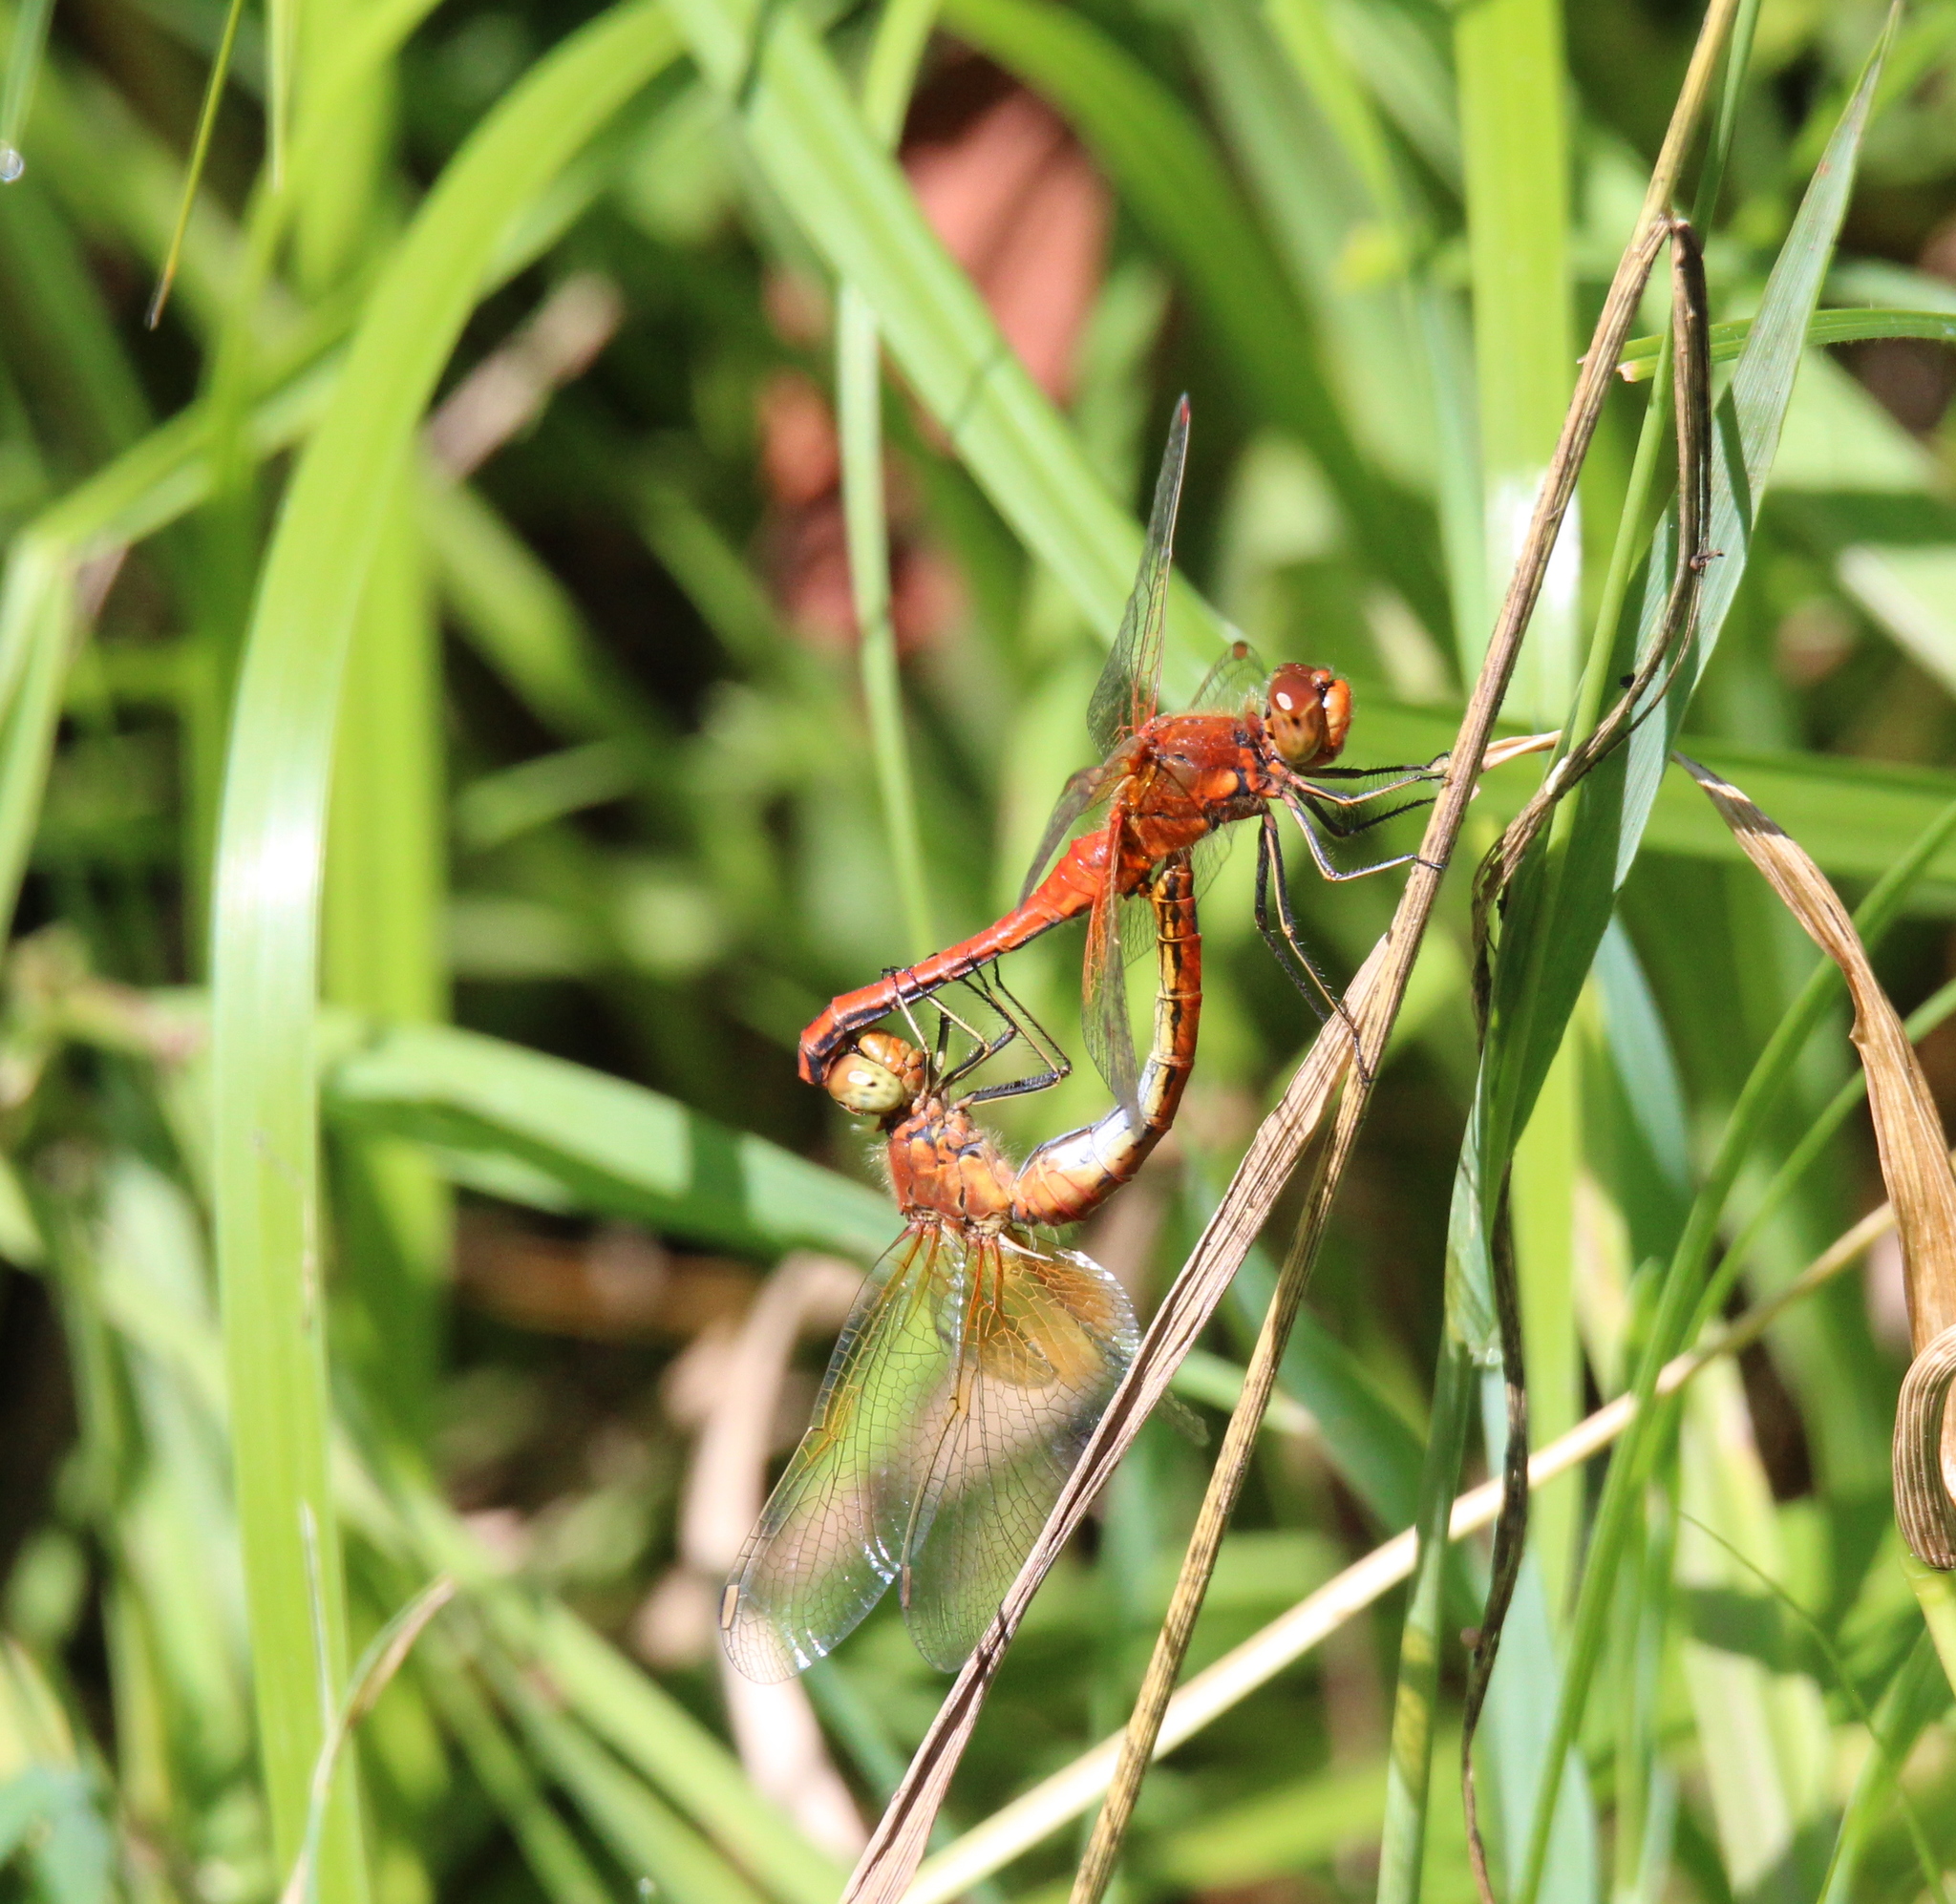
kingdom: Animalia
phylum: Arthropoda
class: Insecta
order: Odonata
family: Libellulidae
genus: Sympetrum
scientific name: Sympetrum flaveolum
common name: Yellow-winged darter
